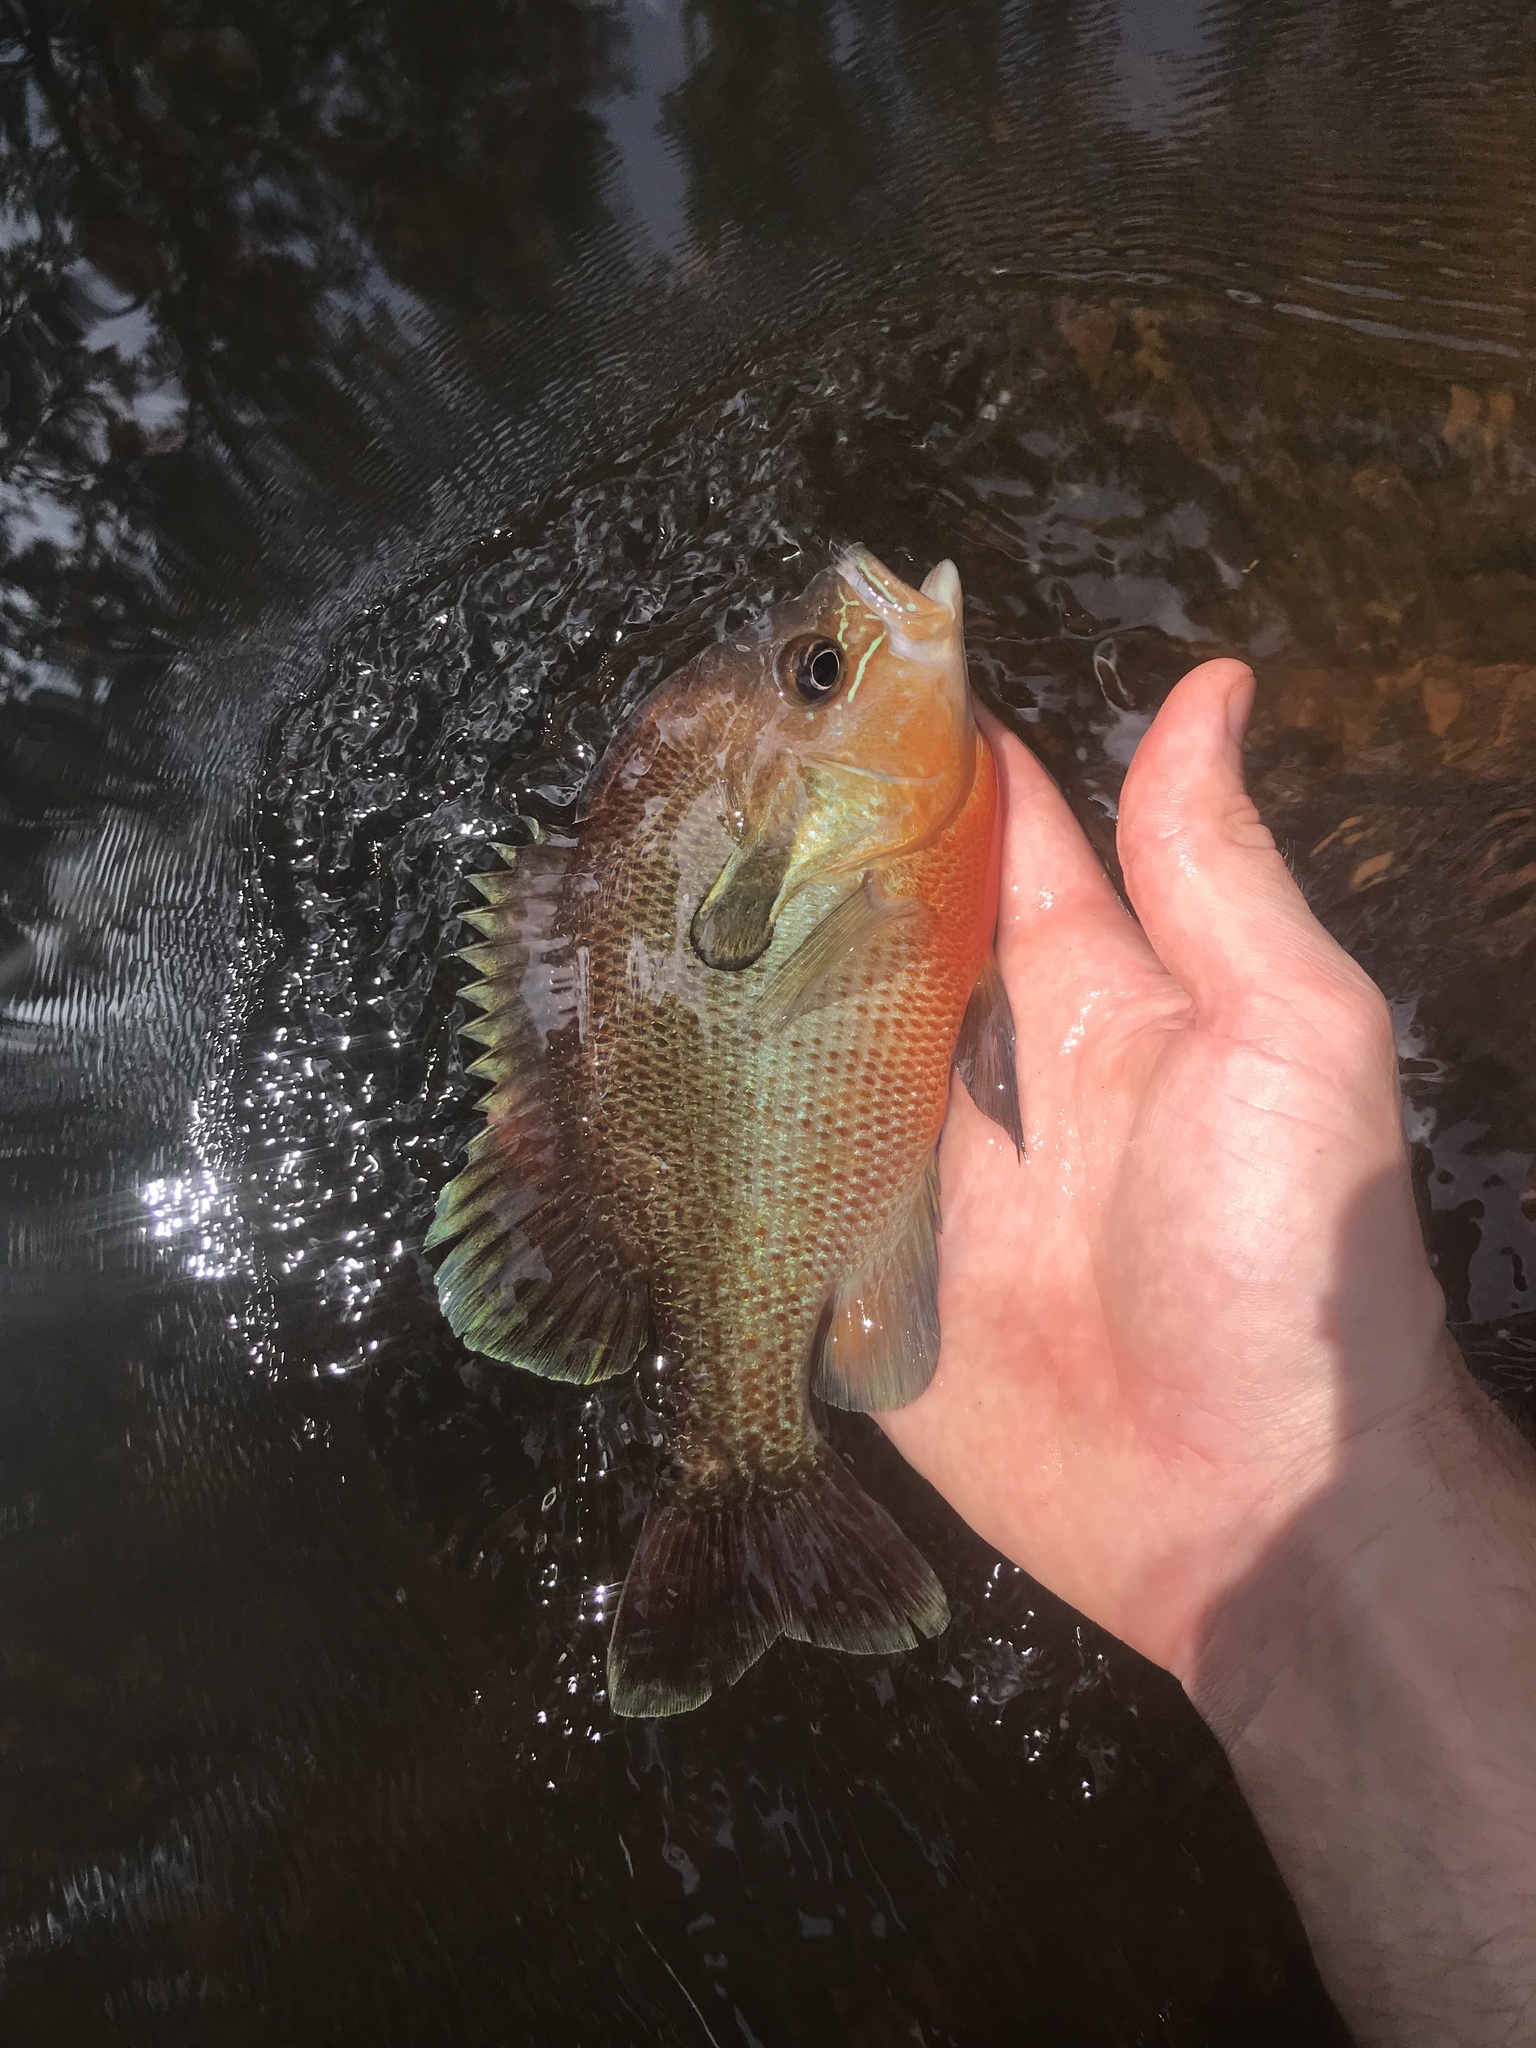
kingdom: Animalia
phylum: Chordata
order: Perciformes
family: Centrarchidae
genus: Lepomis
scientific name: Lepomis auritus
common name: Redbreast sunfish
